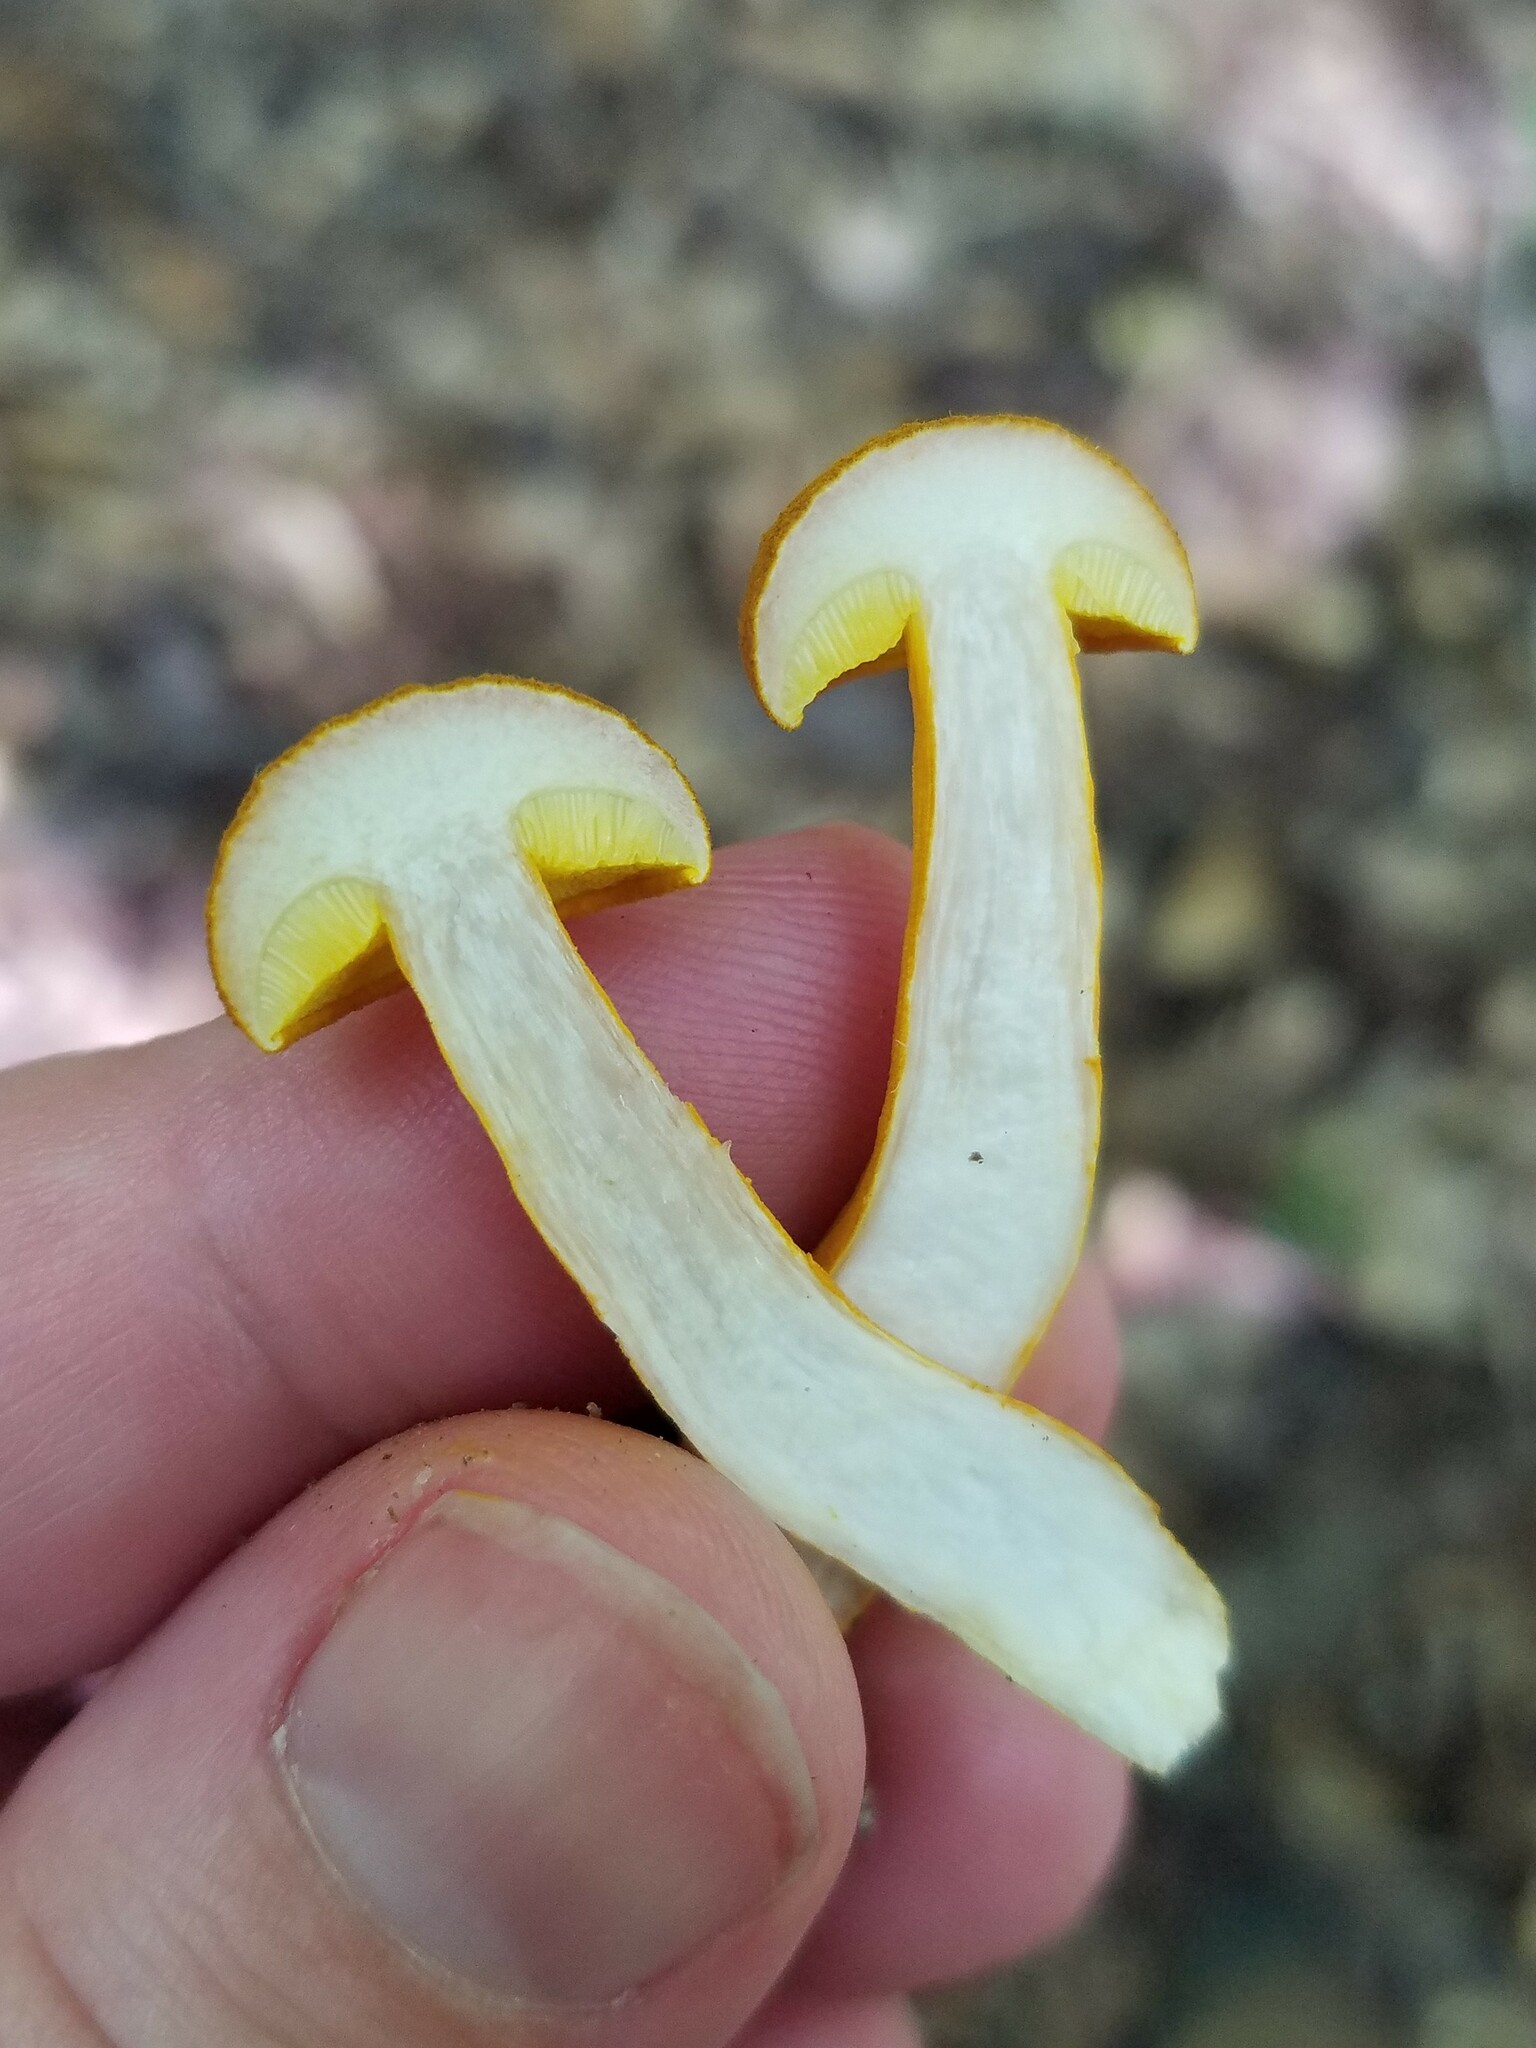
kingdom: Fungi
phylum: Basidiomycota
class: Agaricomycetes
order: Boletales
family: Boletaceae
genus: Aureoboletus
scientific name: Aureoboletus auriflammeus
